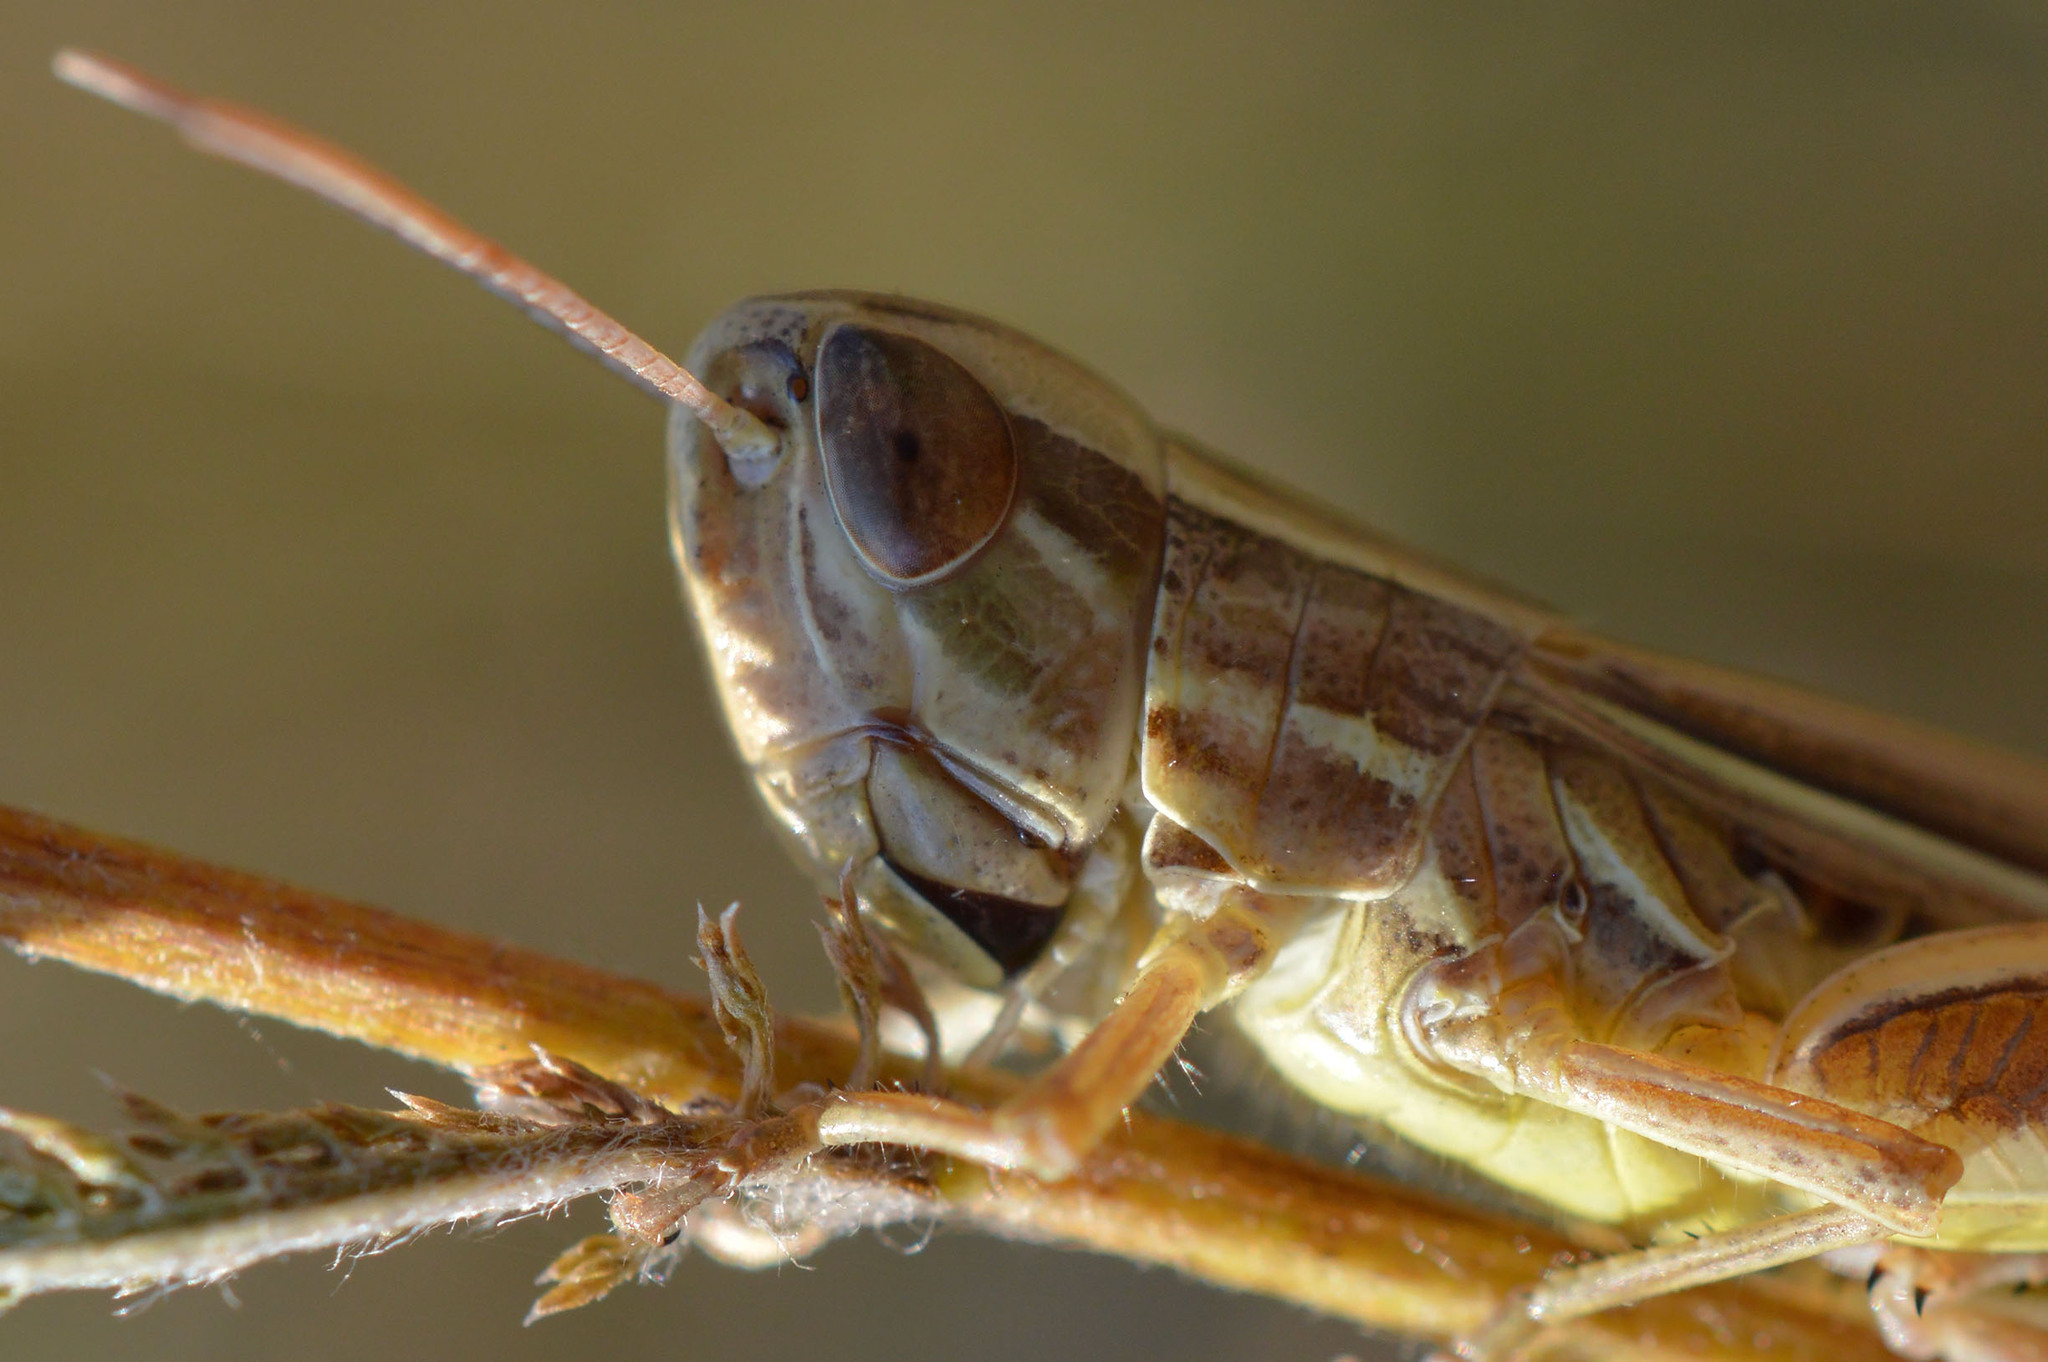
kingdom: Animalia
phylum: Arthropoda
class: Insecta
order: Orthoptera
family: Acrididae
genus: Euchorthippus
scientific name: Euchorthippus declivus
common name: Common straw grasshopper
